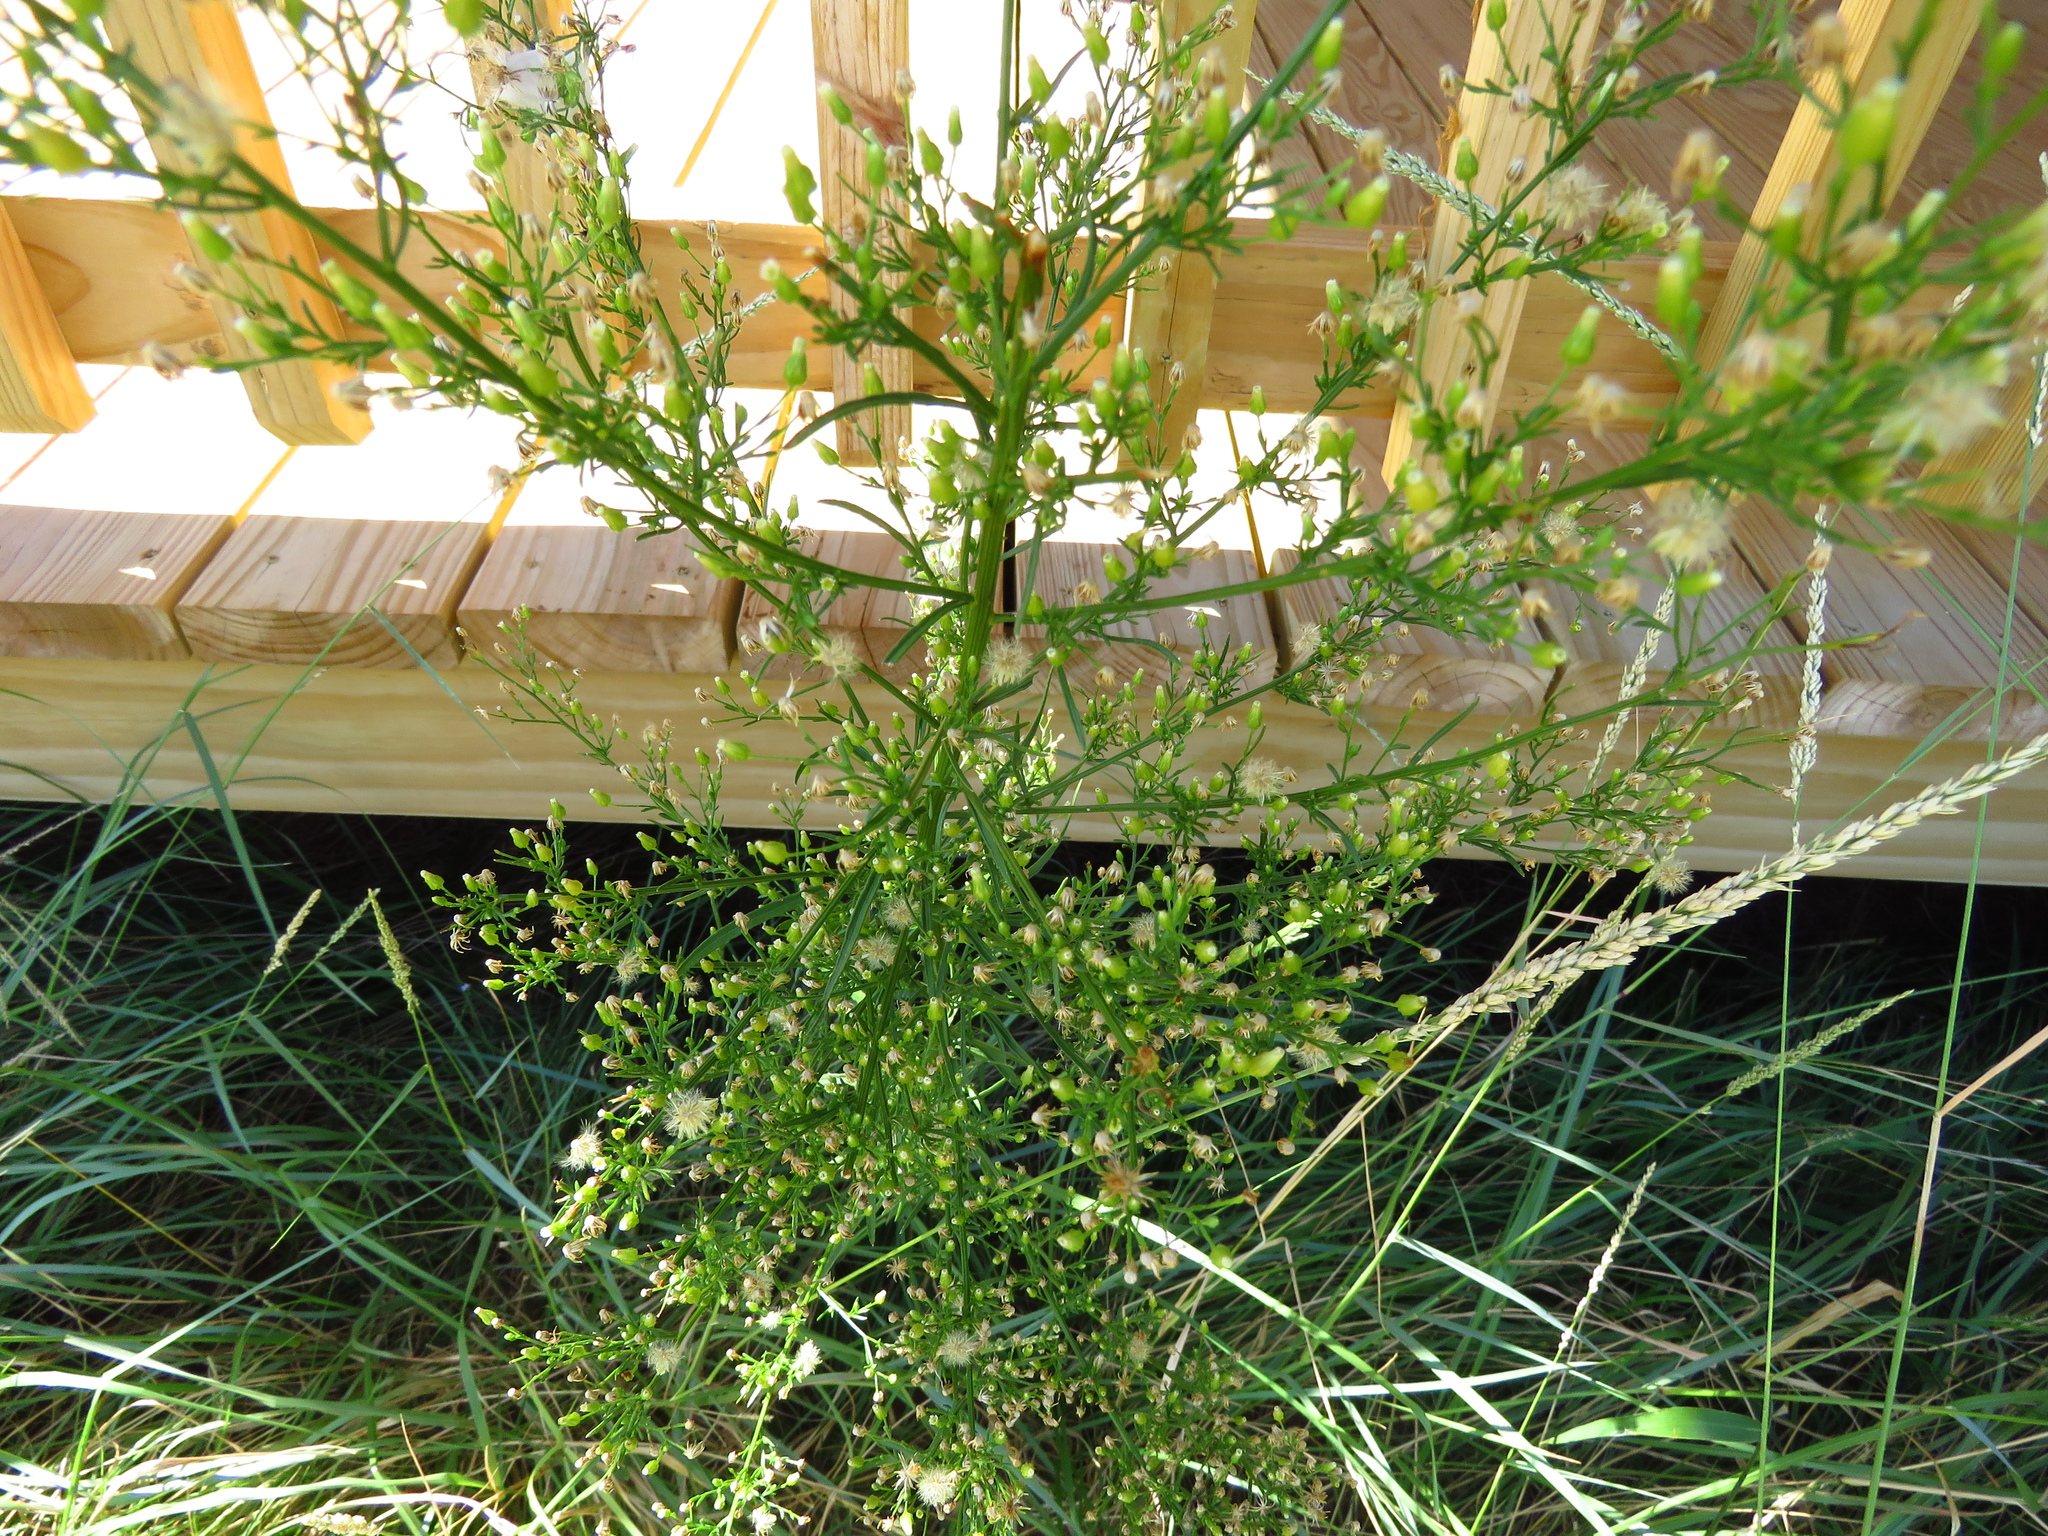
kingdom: Plantae
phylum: Tracheophyta
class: Magnoliopsida
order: Asterales
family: Asteraceae
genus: Erigeron
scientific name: Erigeron canadensis
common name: Canadian fleabane
